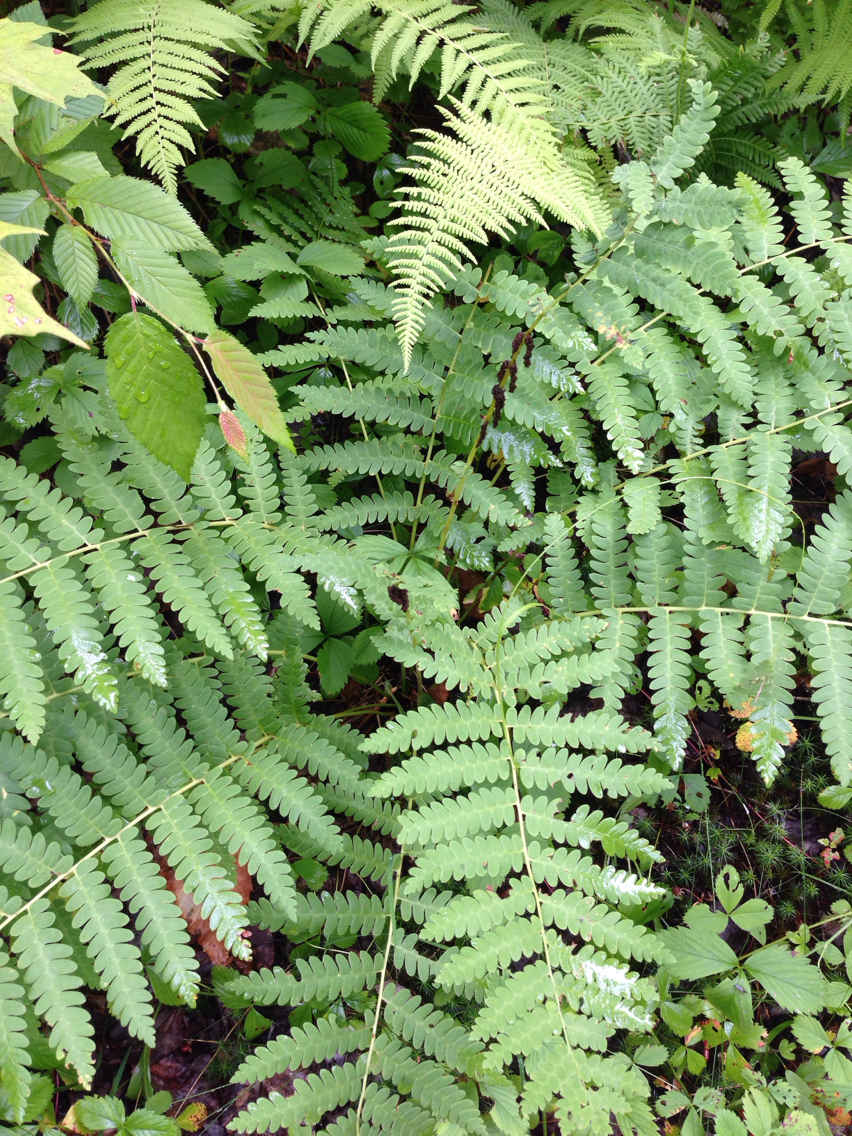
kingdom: Plantae
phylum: Tracheophyta
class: Polypodiopsida
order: Osmundales
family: Osmundaceae
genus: Claytosmunda
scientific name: Claytosmunda claytoniana
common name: Clayton's fern
